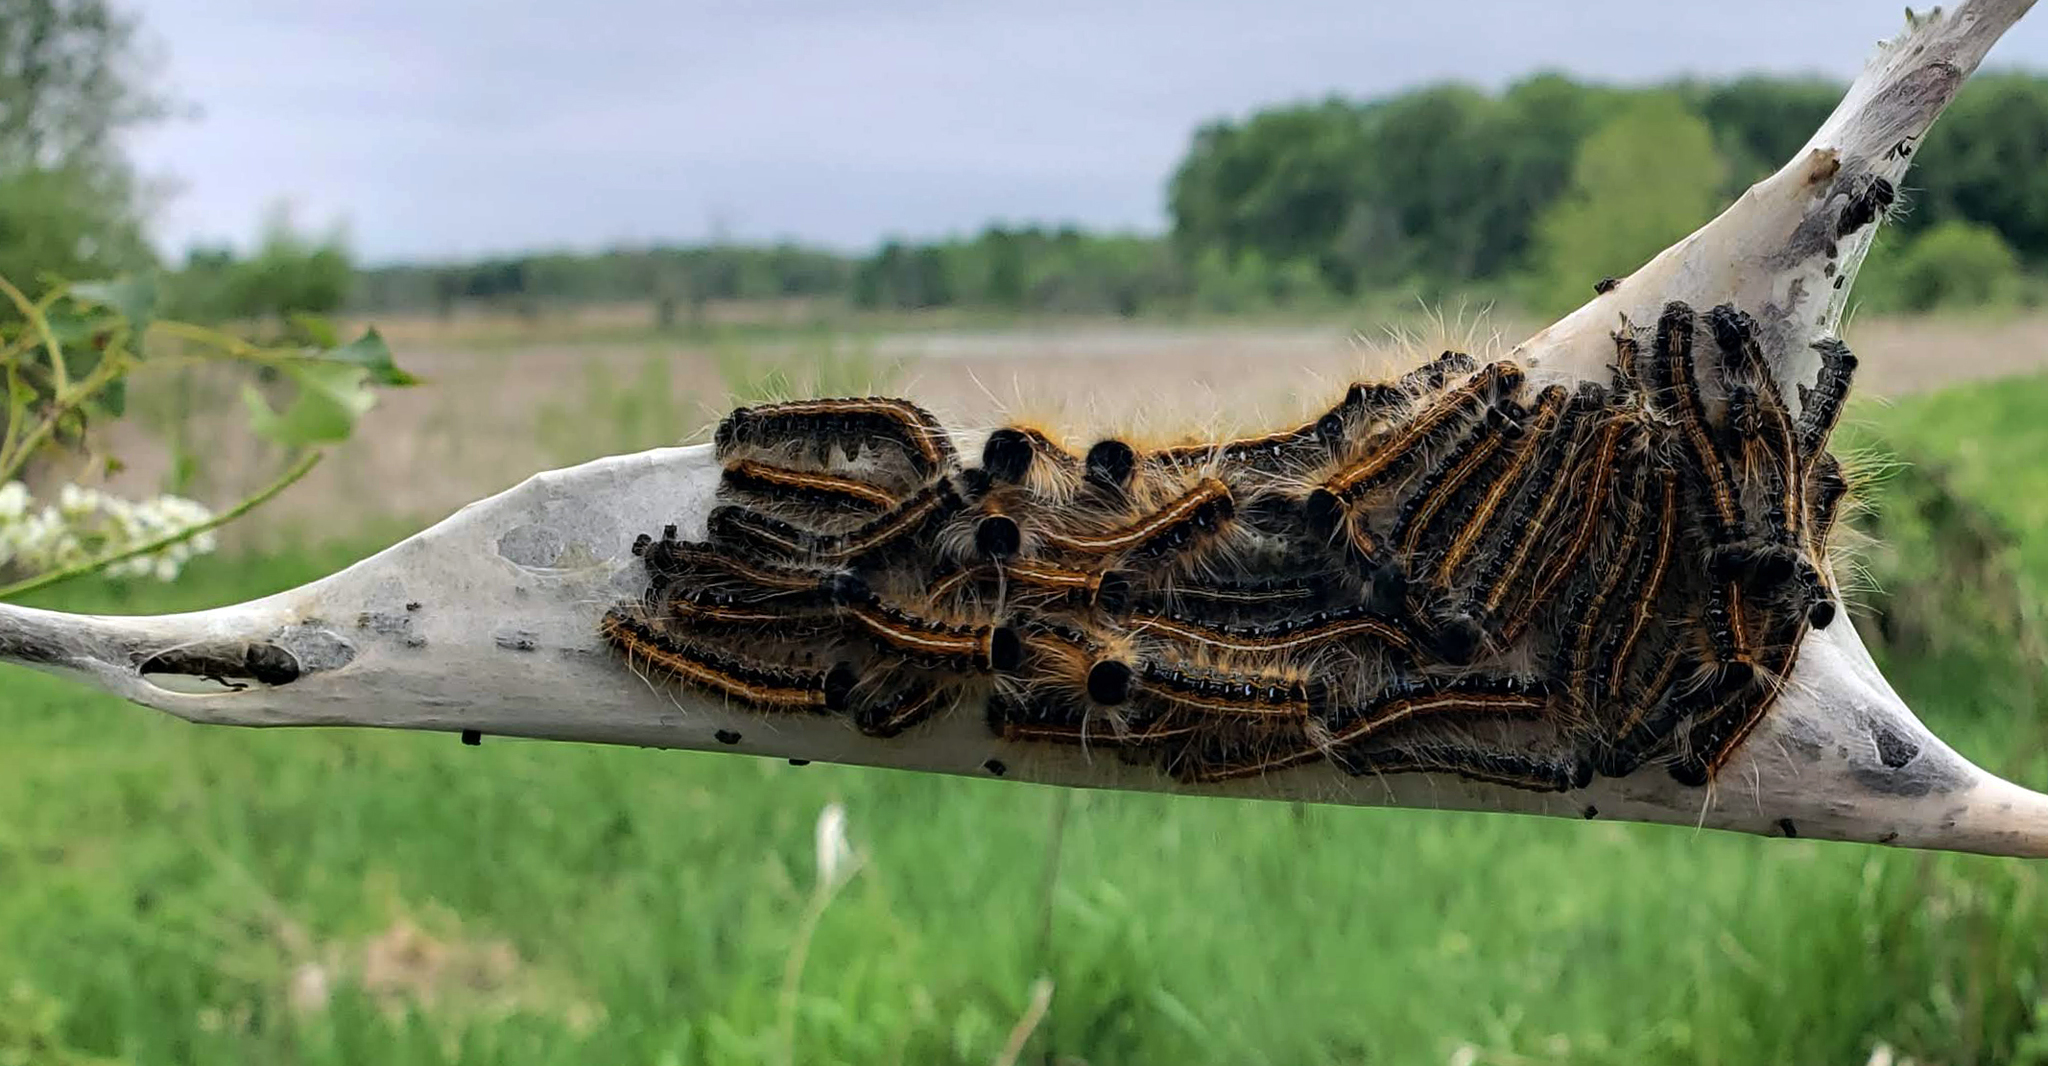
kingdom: Animalia
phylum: Arthropoda
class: Insecta
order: Lepidoptera
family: Lasiocampidae
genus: Malacosoma
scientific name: Malacosoma americana
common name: Eastern tent caterpillar moth
